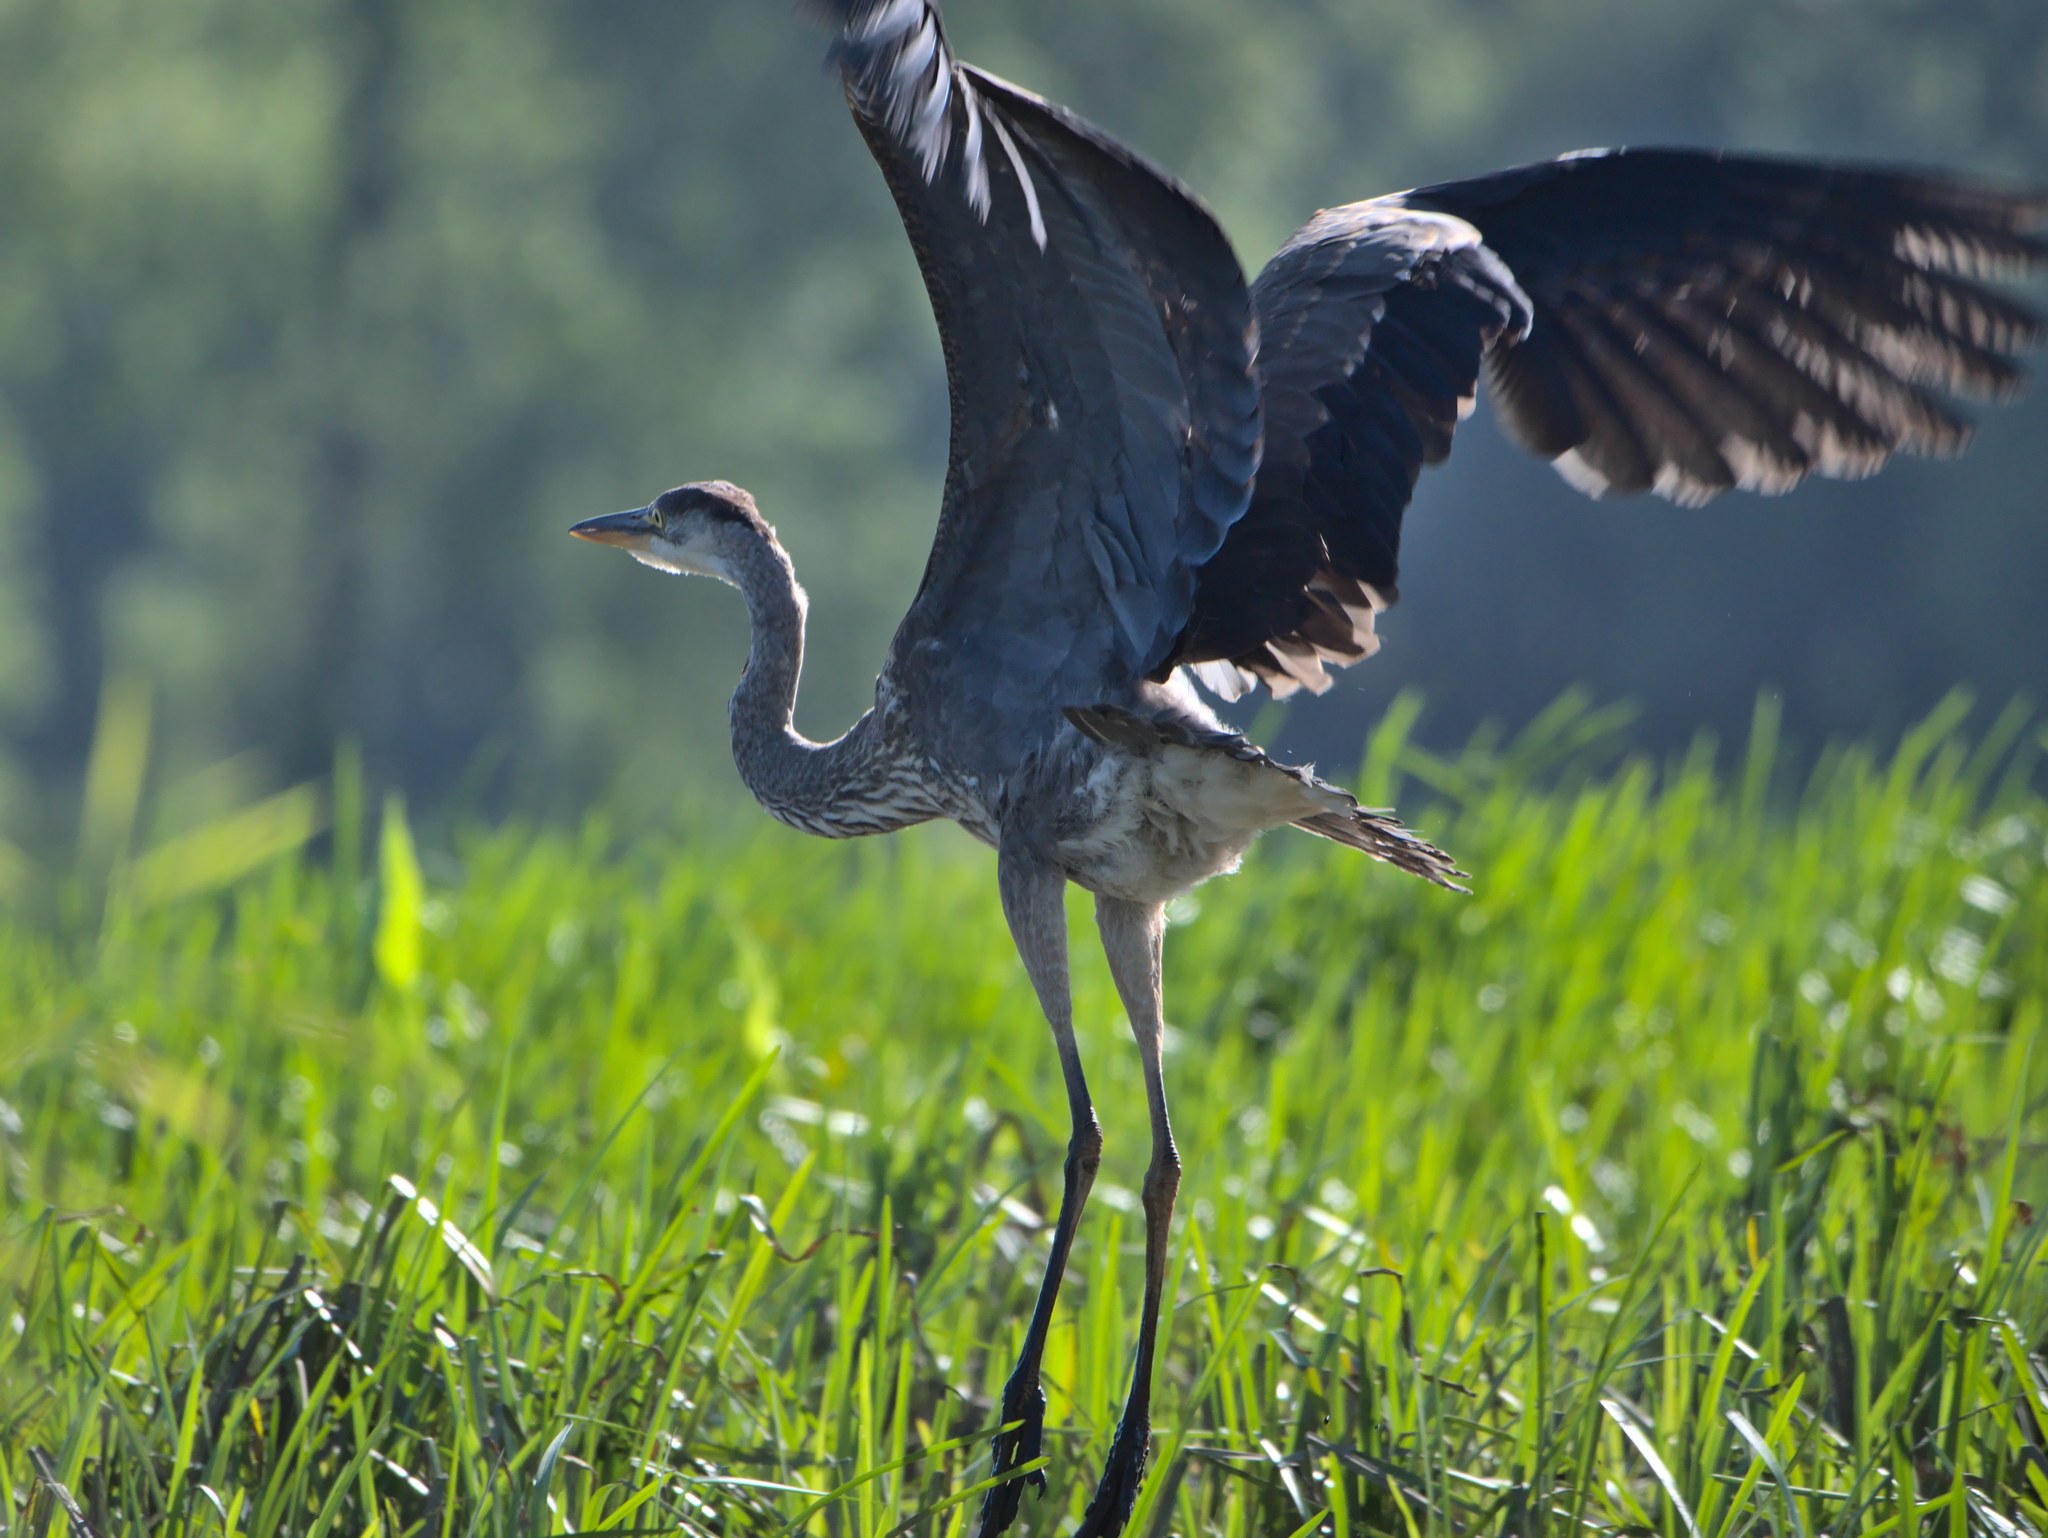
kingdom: Animalia
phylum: Chordata
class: Aves
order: Pelecaniformes
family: Ardeidae
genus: Ardea
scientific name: Ardea herodias
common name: Great blue heron
